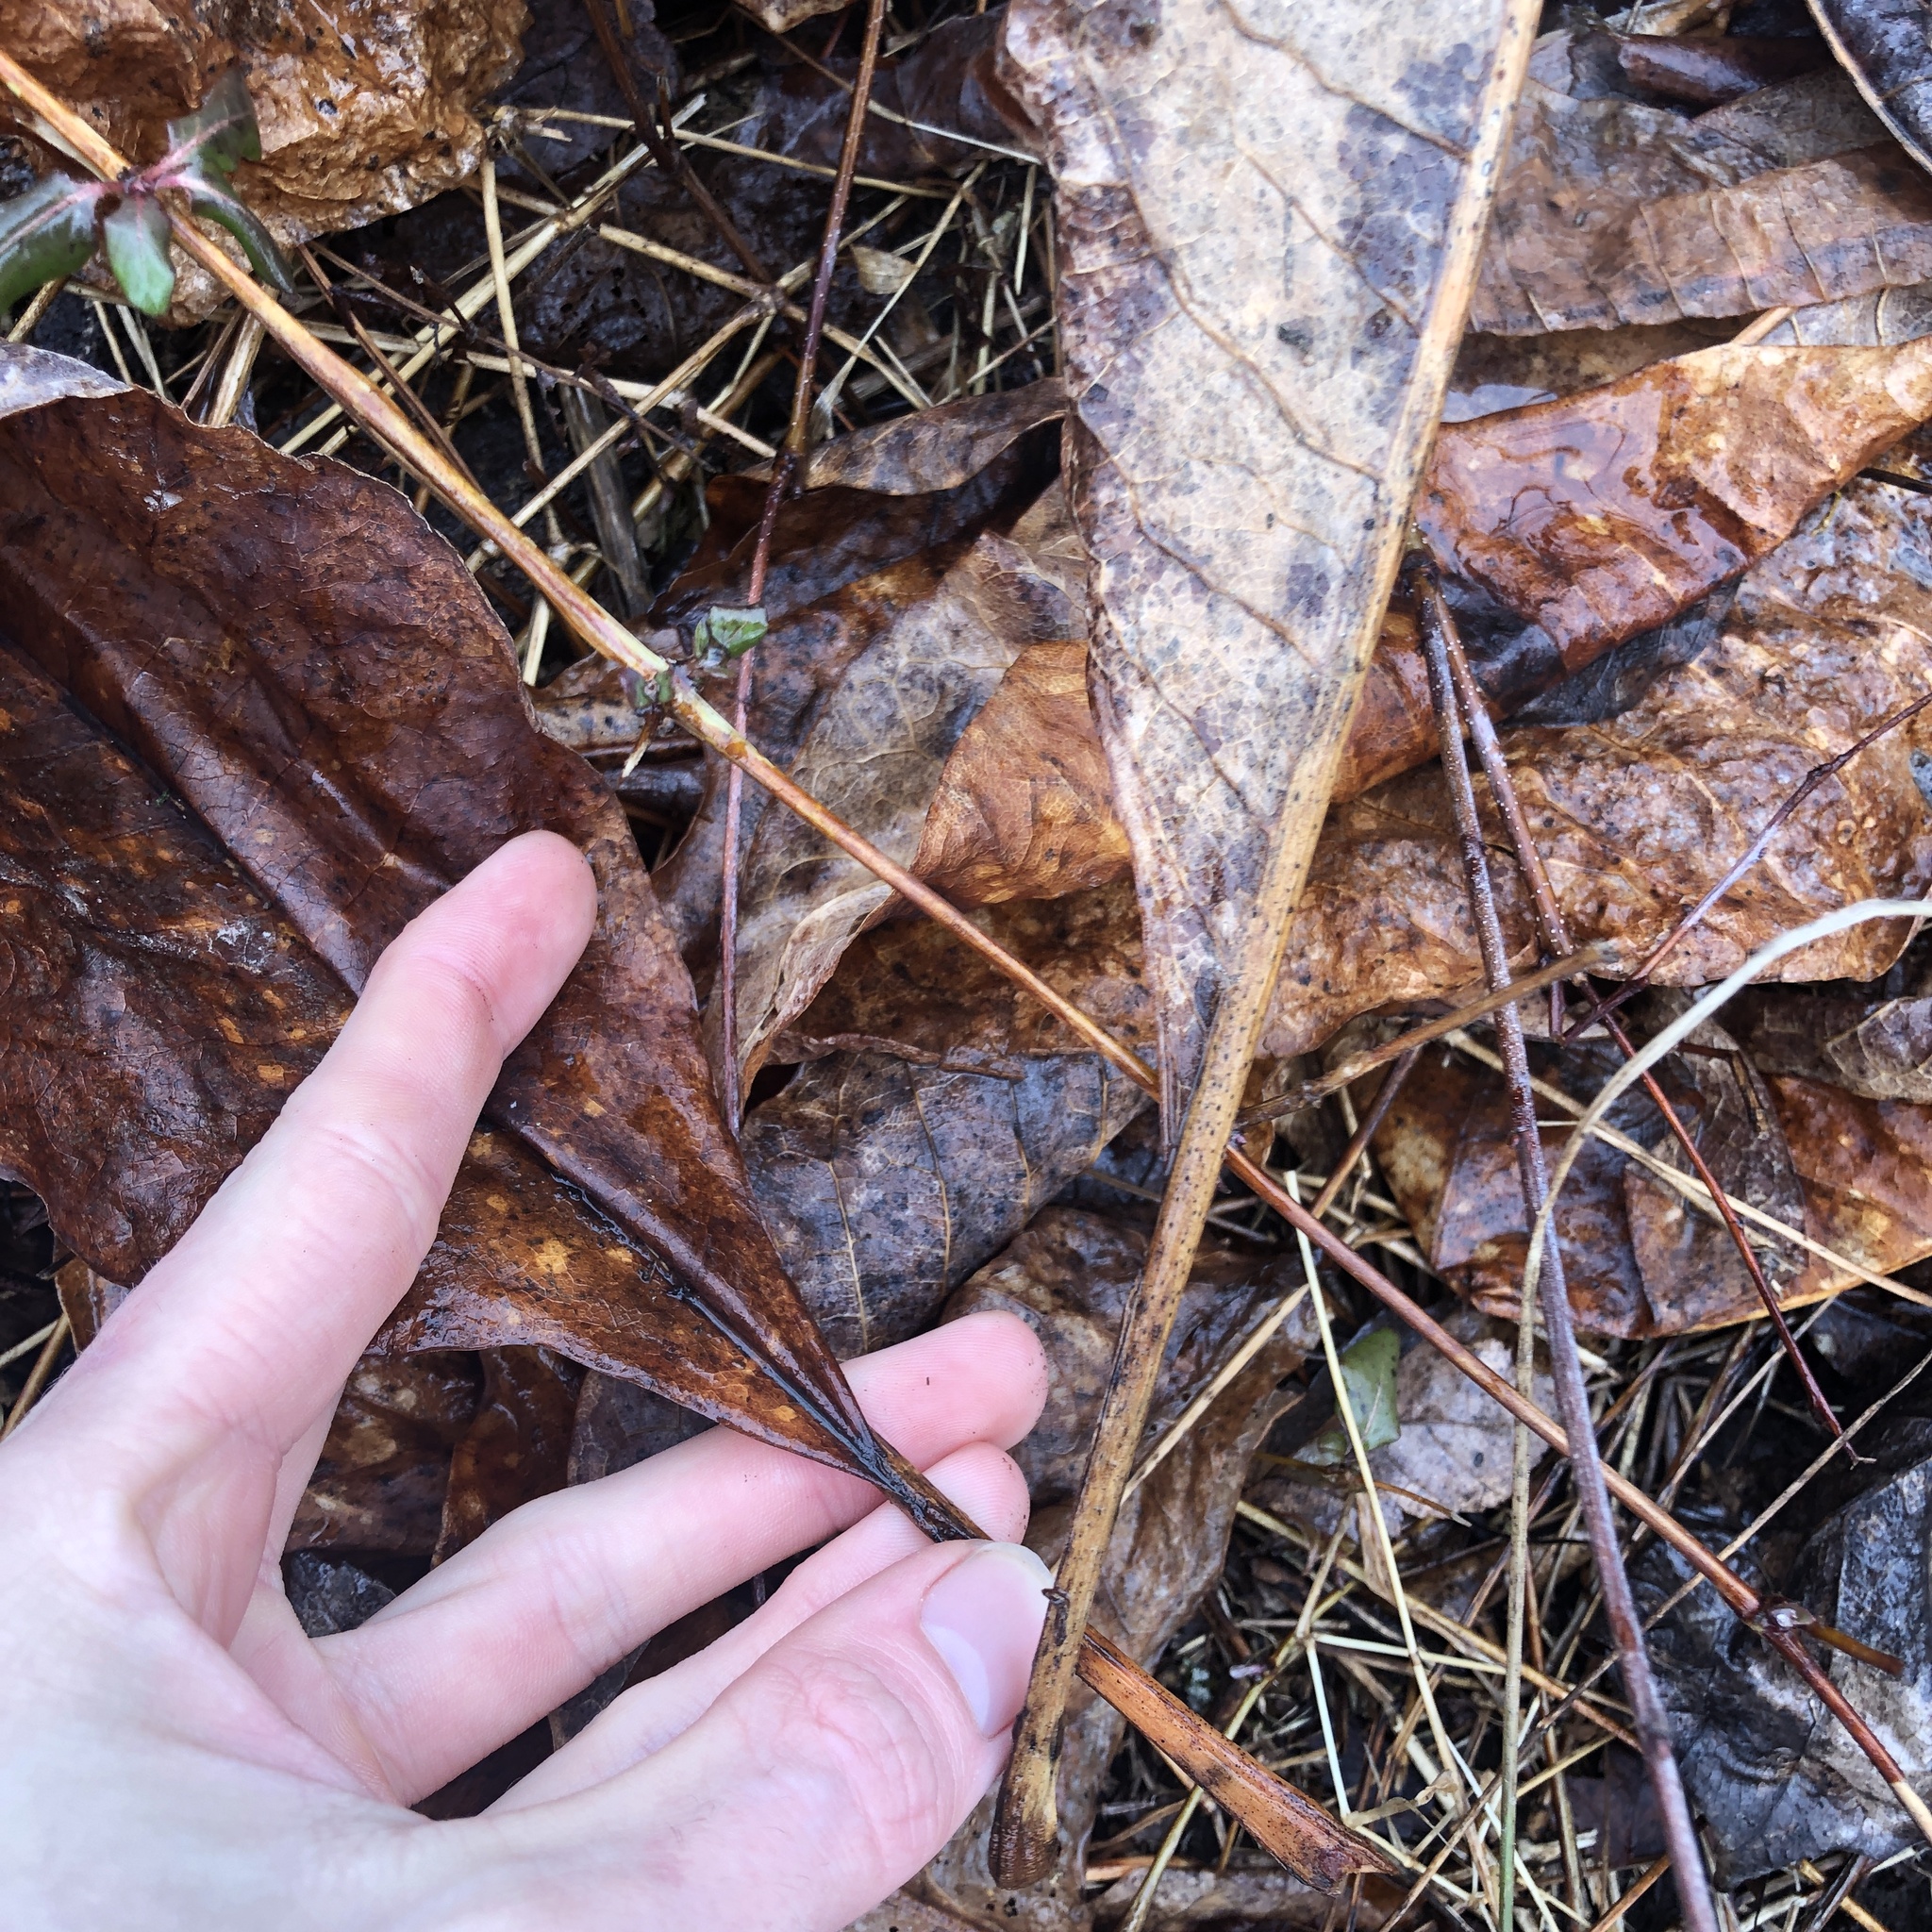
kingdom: Plantae
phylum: Tracheophyta
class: Magnoliopsida
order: Magnoliales
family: Magnoliaceae
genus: Magnolia
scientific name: Magnolia tripetala
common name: Umbrella magnolia
